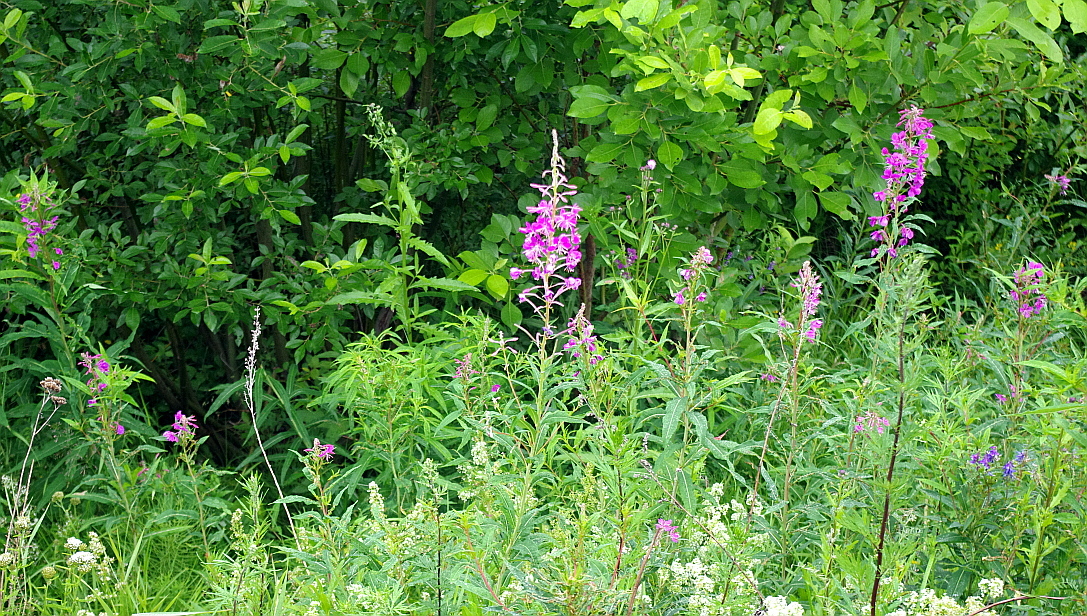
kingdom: Plantae
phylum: Tracheophyta
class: Magnoliopsida
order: Myrtales
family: Onagraceae
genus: Chamaenerion
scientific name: Chamaenerion angustifolium
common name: Fireweed
